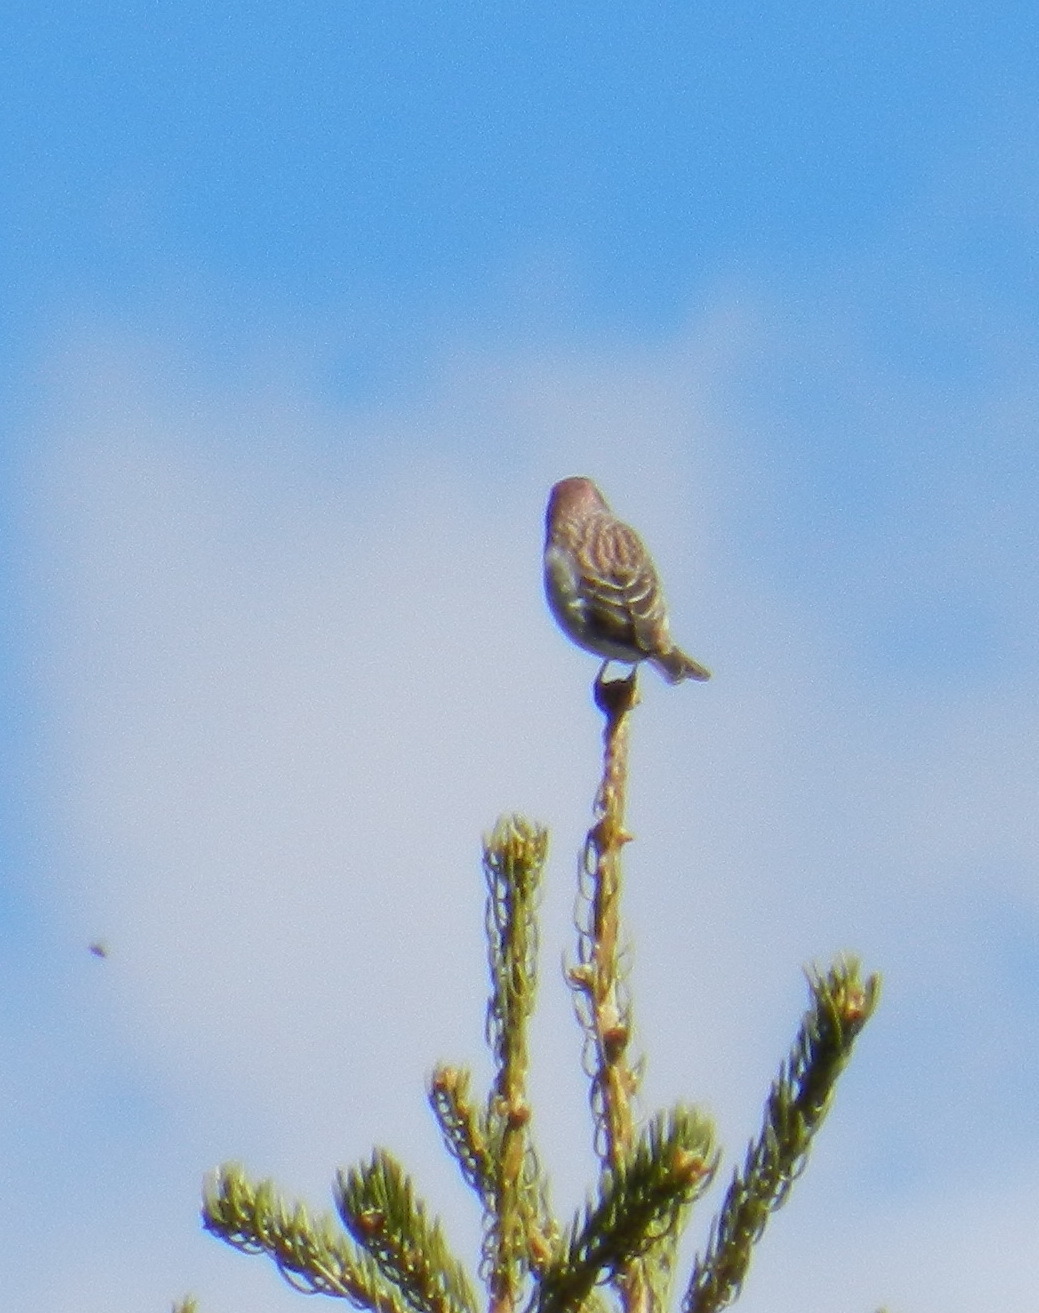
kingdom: Animalia
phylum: Chordata
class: Aves
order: Passeriformes
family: Fringillidae
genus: Haemorhous
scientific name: Haemorhous cassinii
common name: Cassin's finch
